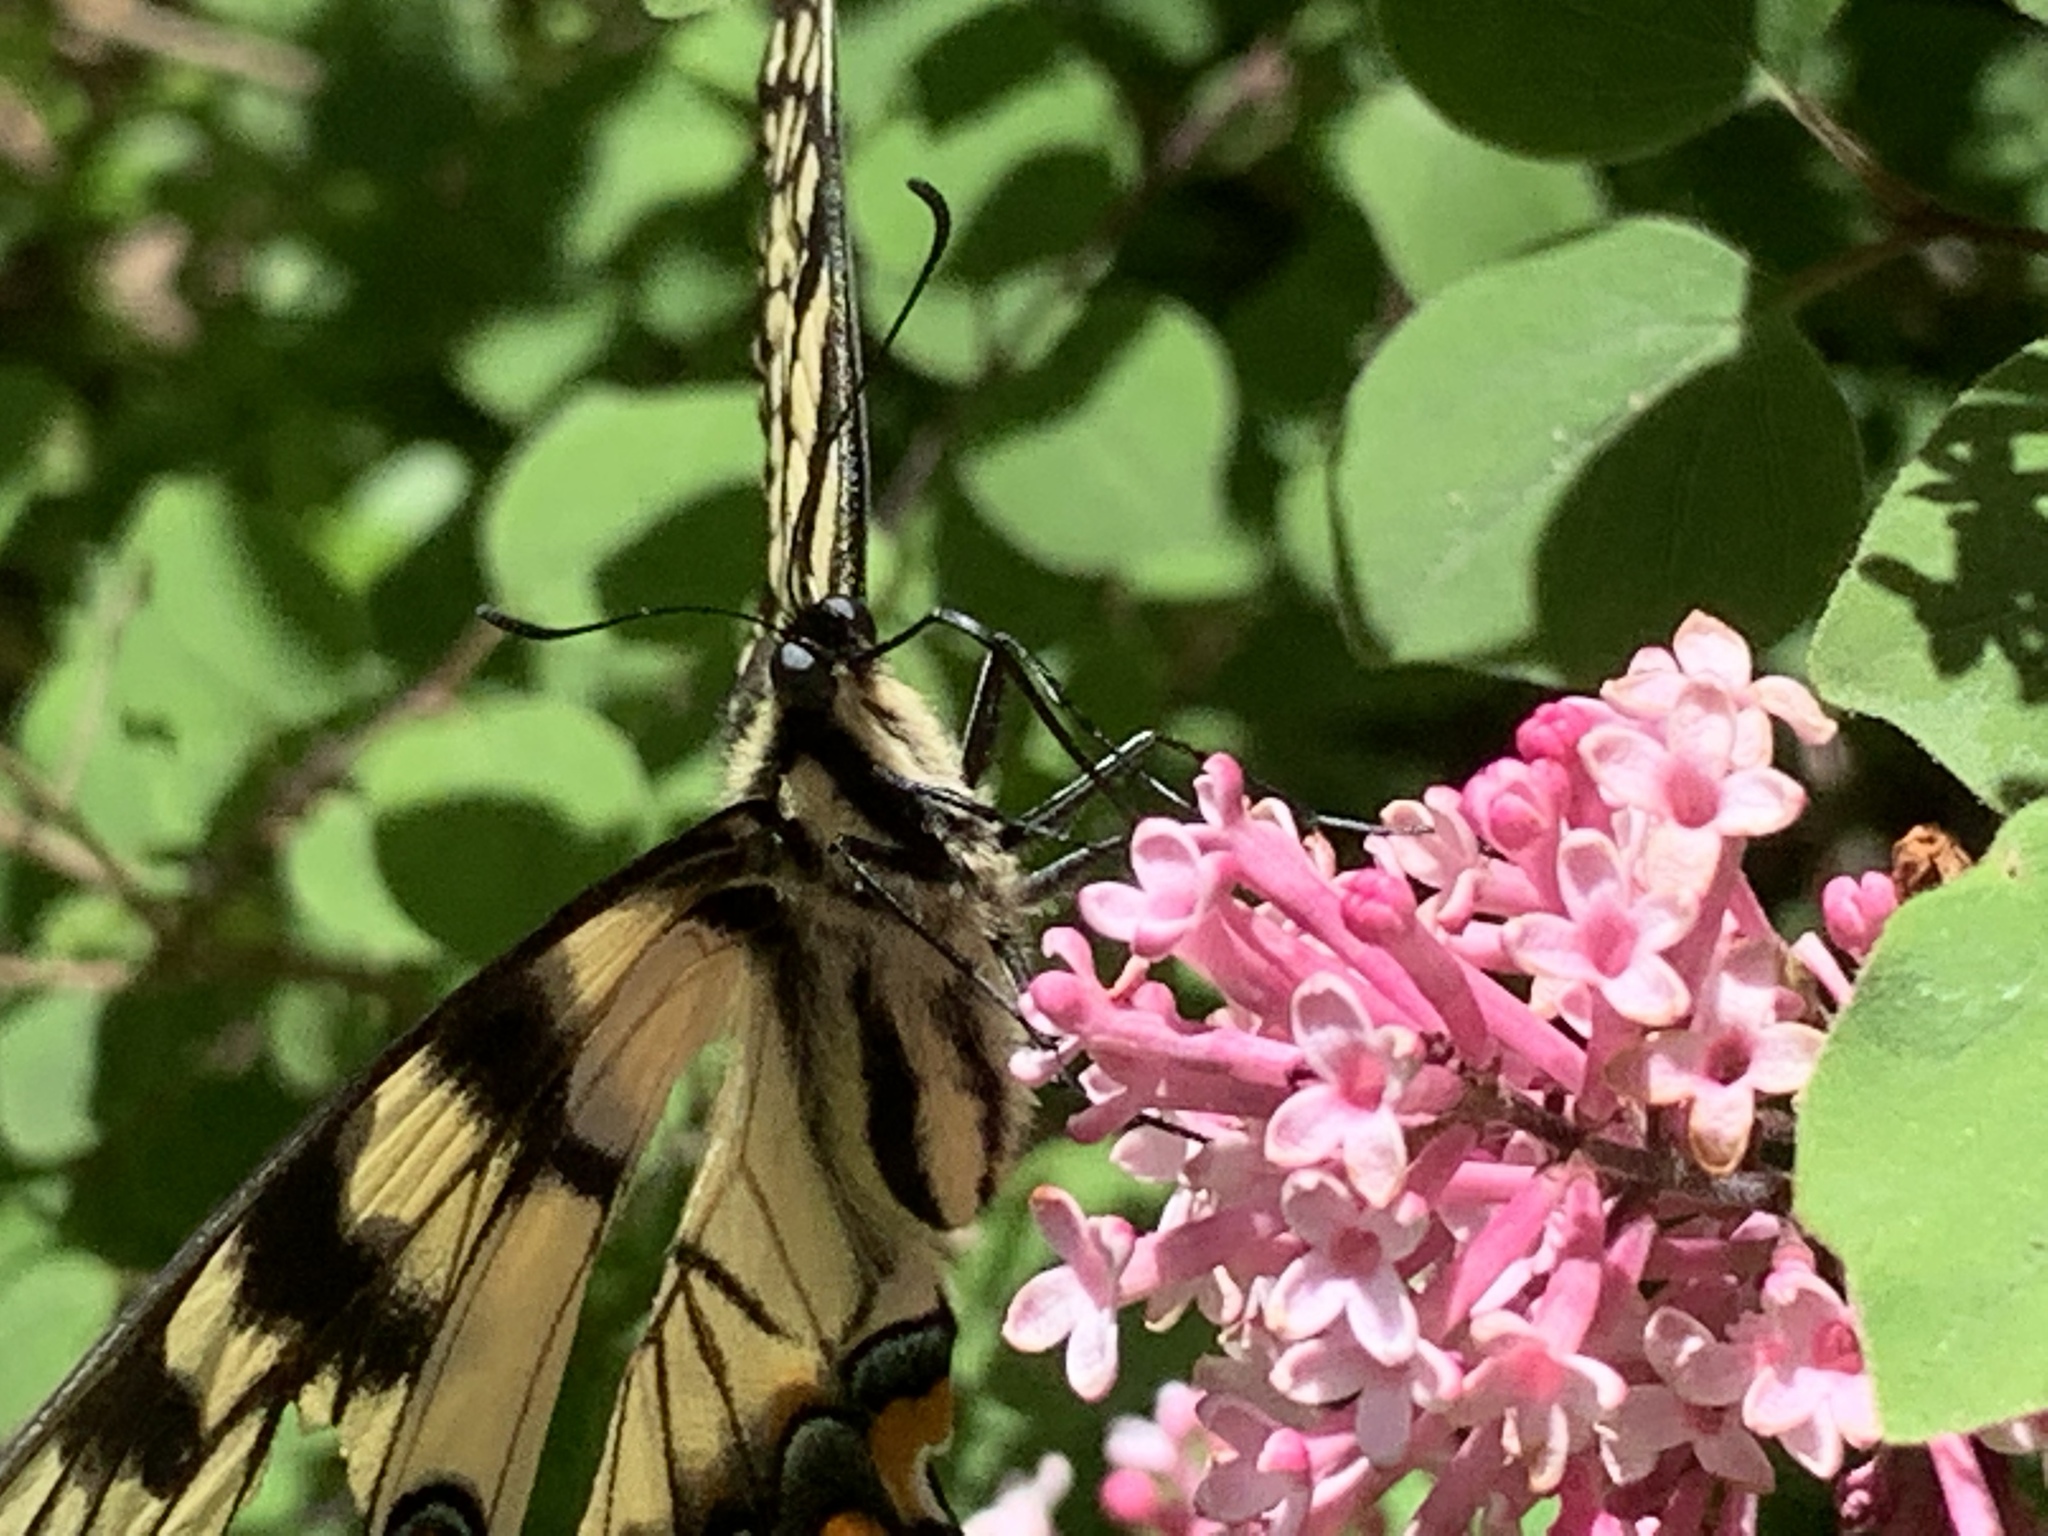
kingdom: Animalia
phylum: Arthropoda
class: Insecta
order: Lepidoptera
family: Papilionidae
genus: Papilio
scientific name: Papilio glaucus
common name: Tiger swallowtail
